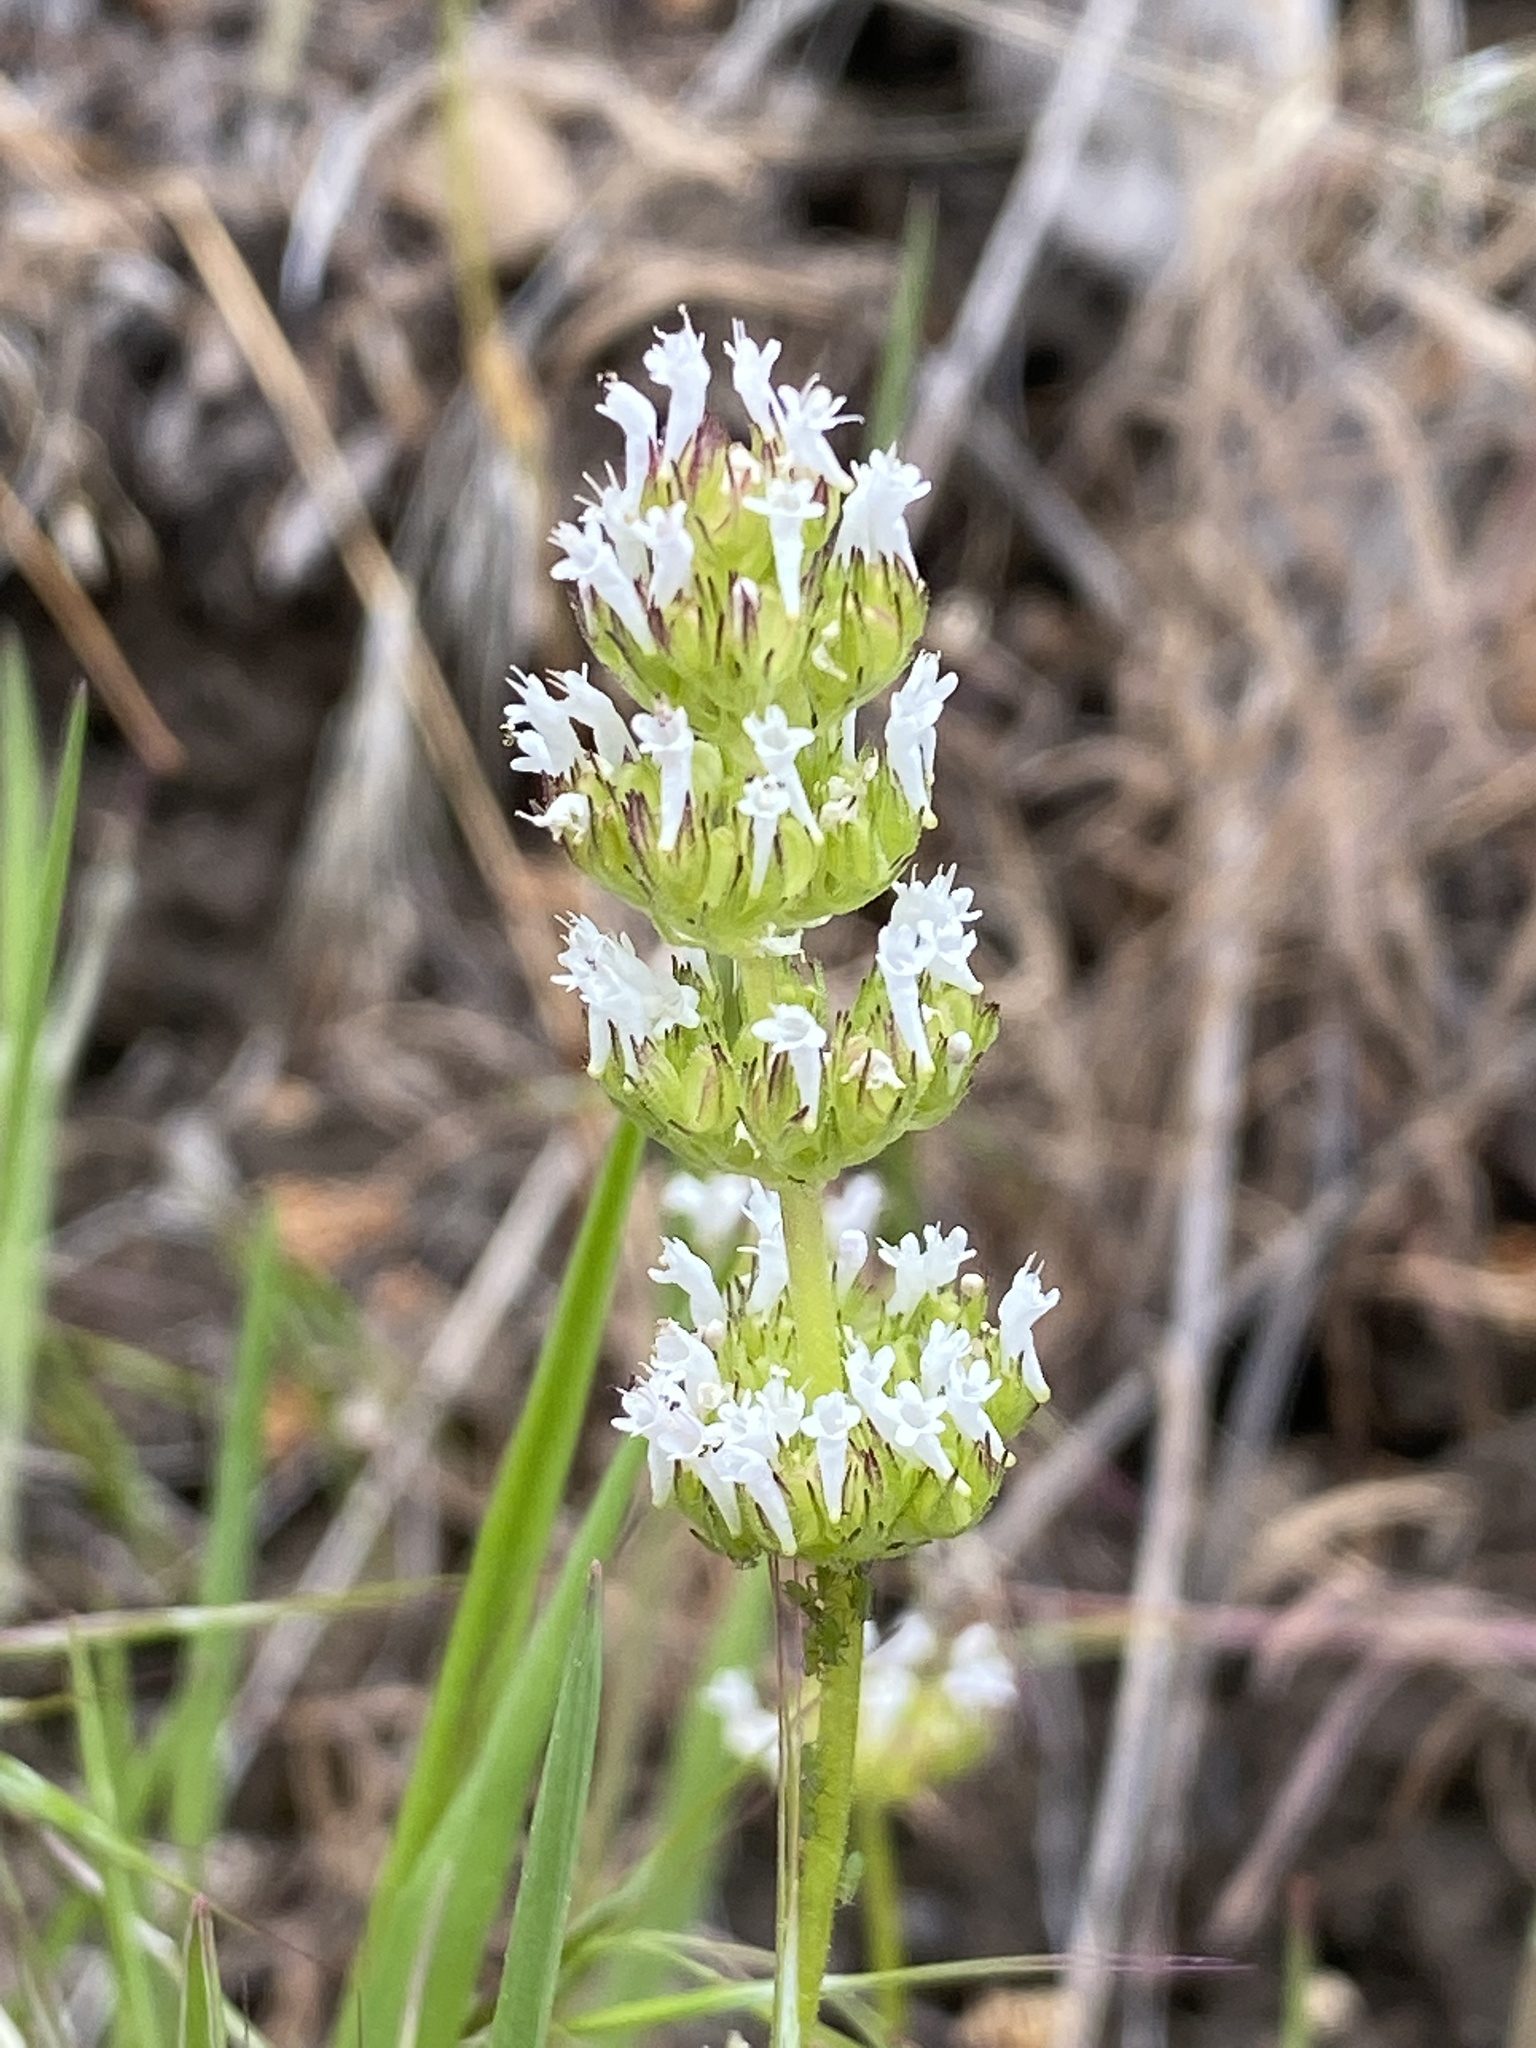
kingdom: Plantae
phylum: Tracheophyta
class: Magnoliopsida
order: Dipsacales
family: Caprifoliaceae
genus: Plectritis
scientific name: Plectritis macroptera
